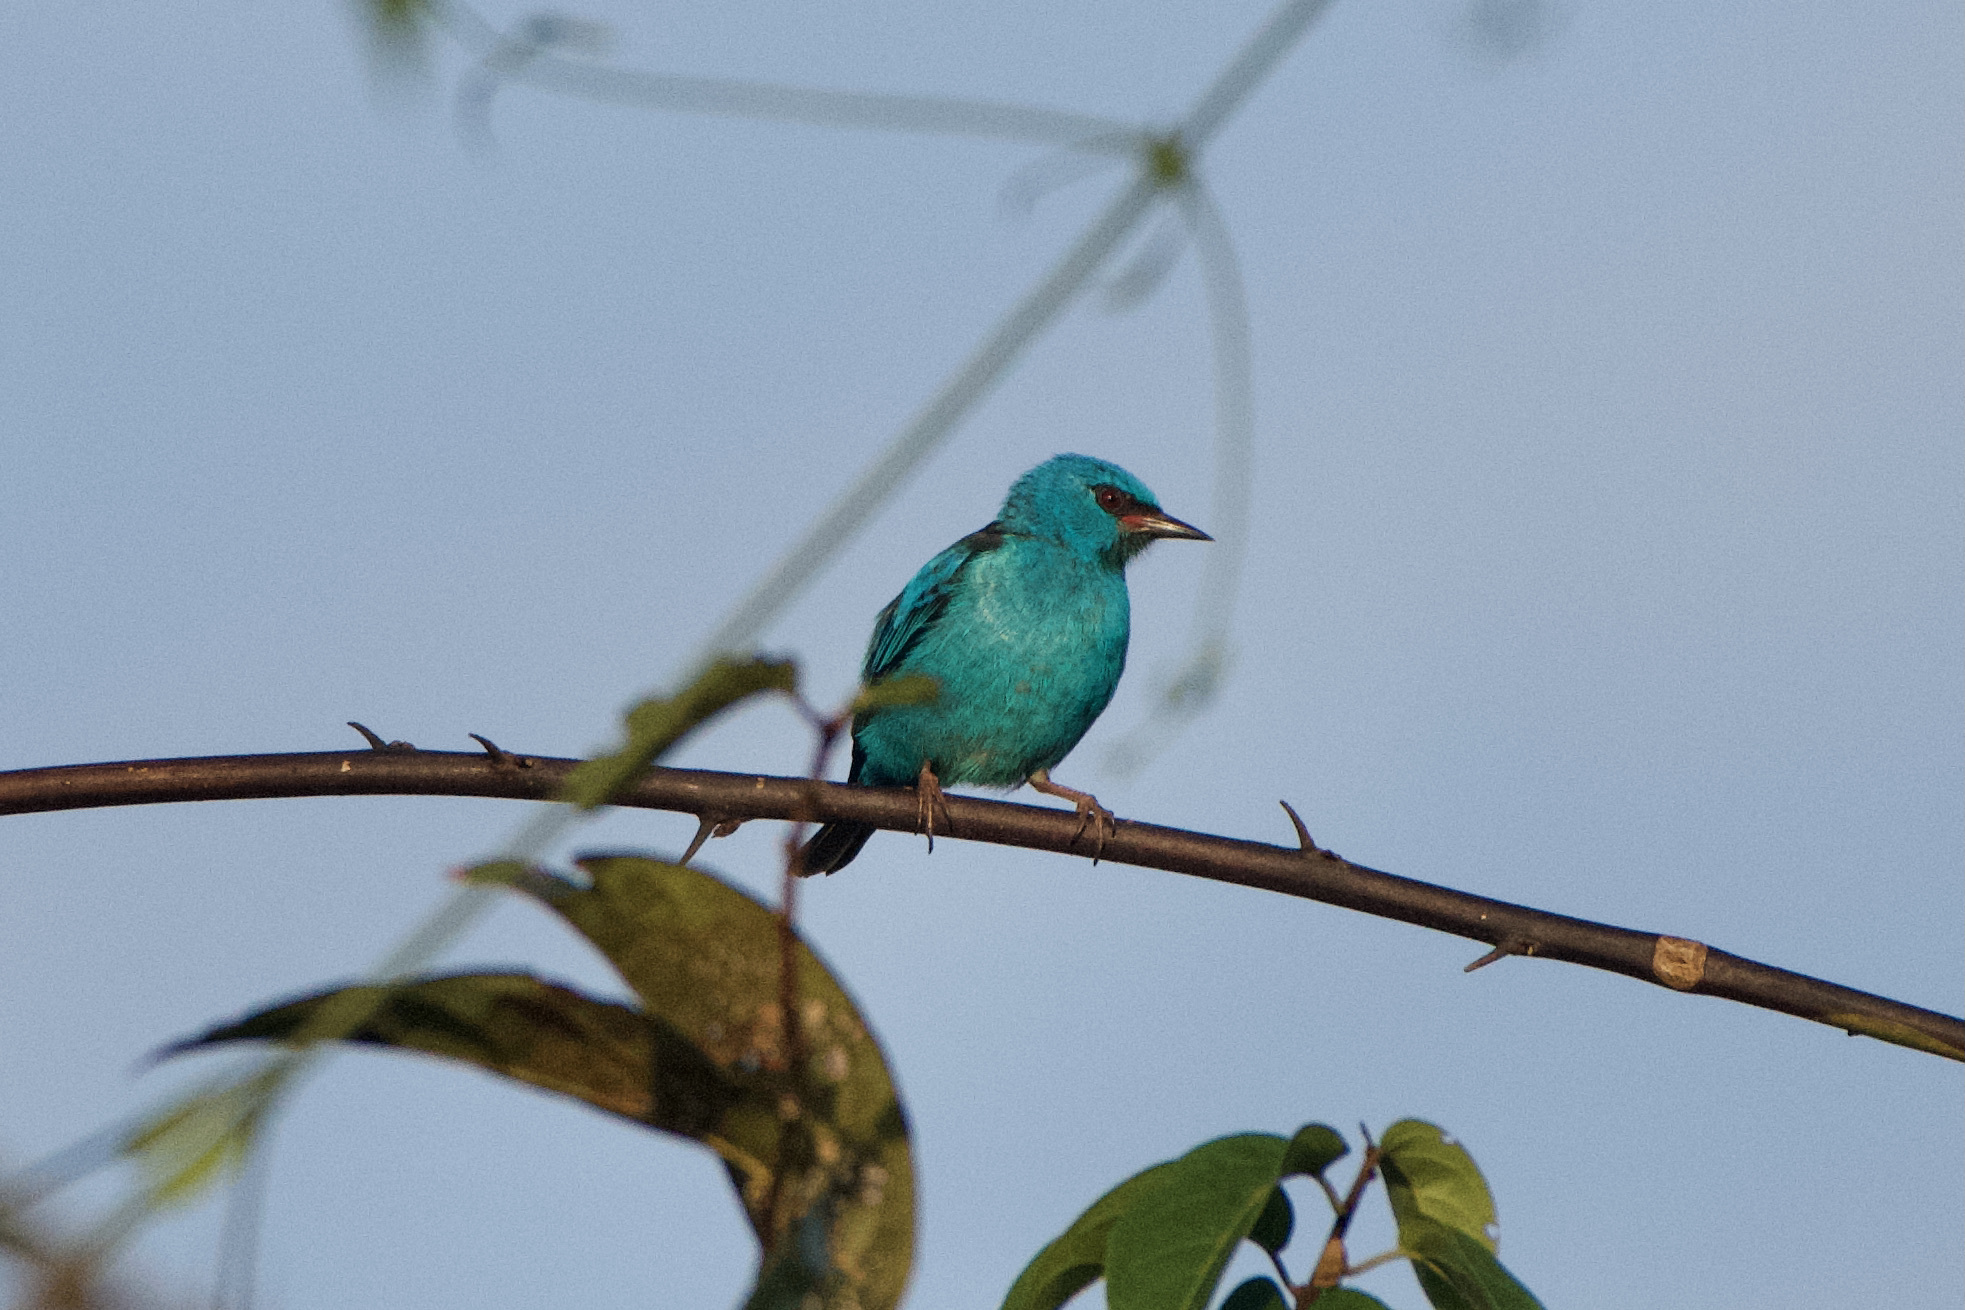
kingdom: Animalia
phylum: Chordata
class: Aves
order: Passeriformes
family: Thraupidae
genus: Dacnis
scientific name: Dacnis cayana
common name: Blue dacnis
